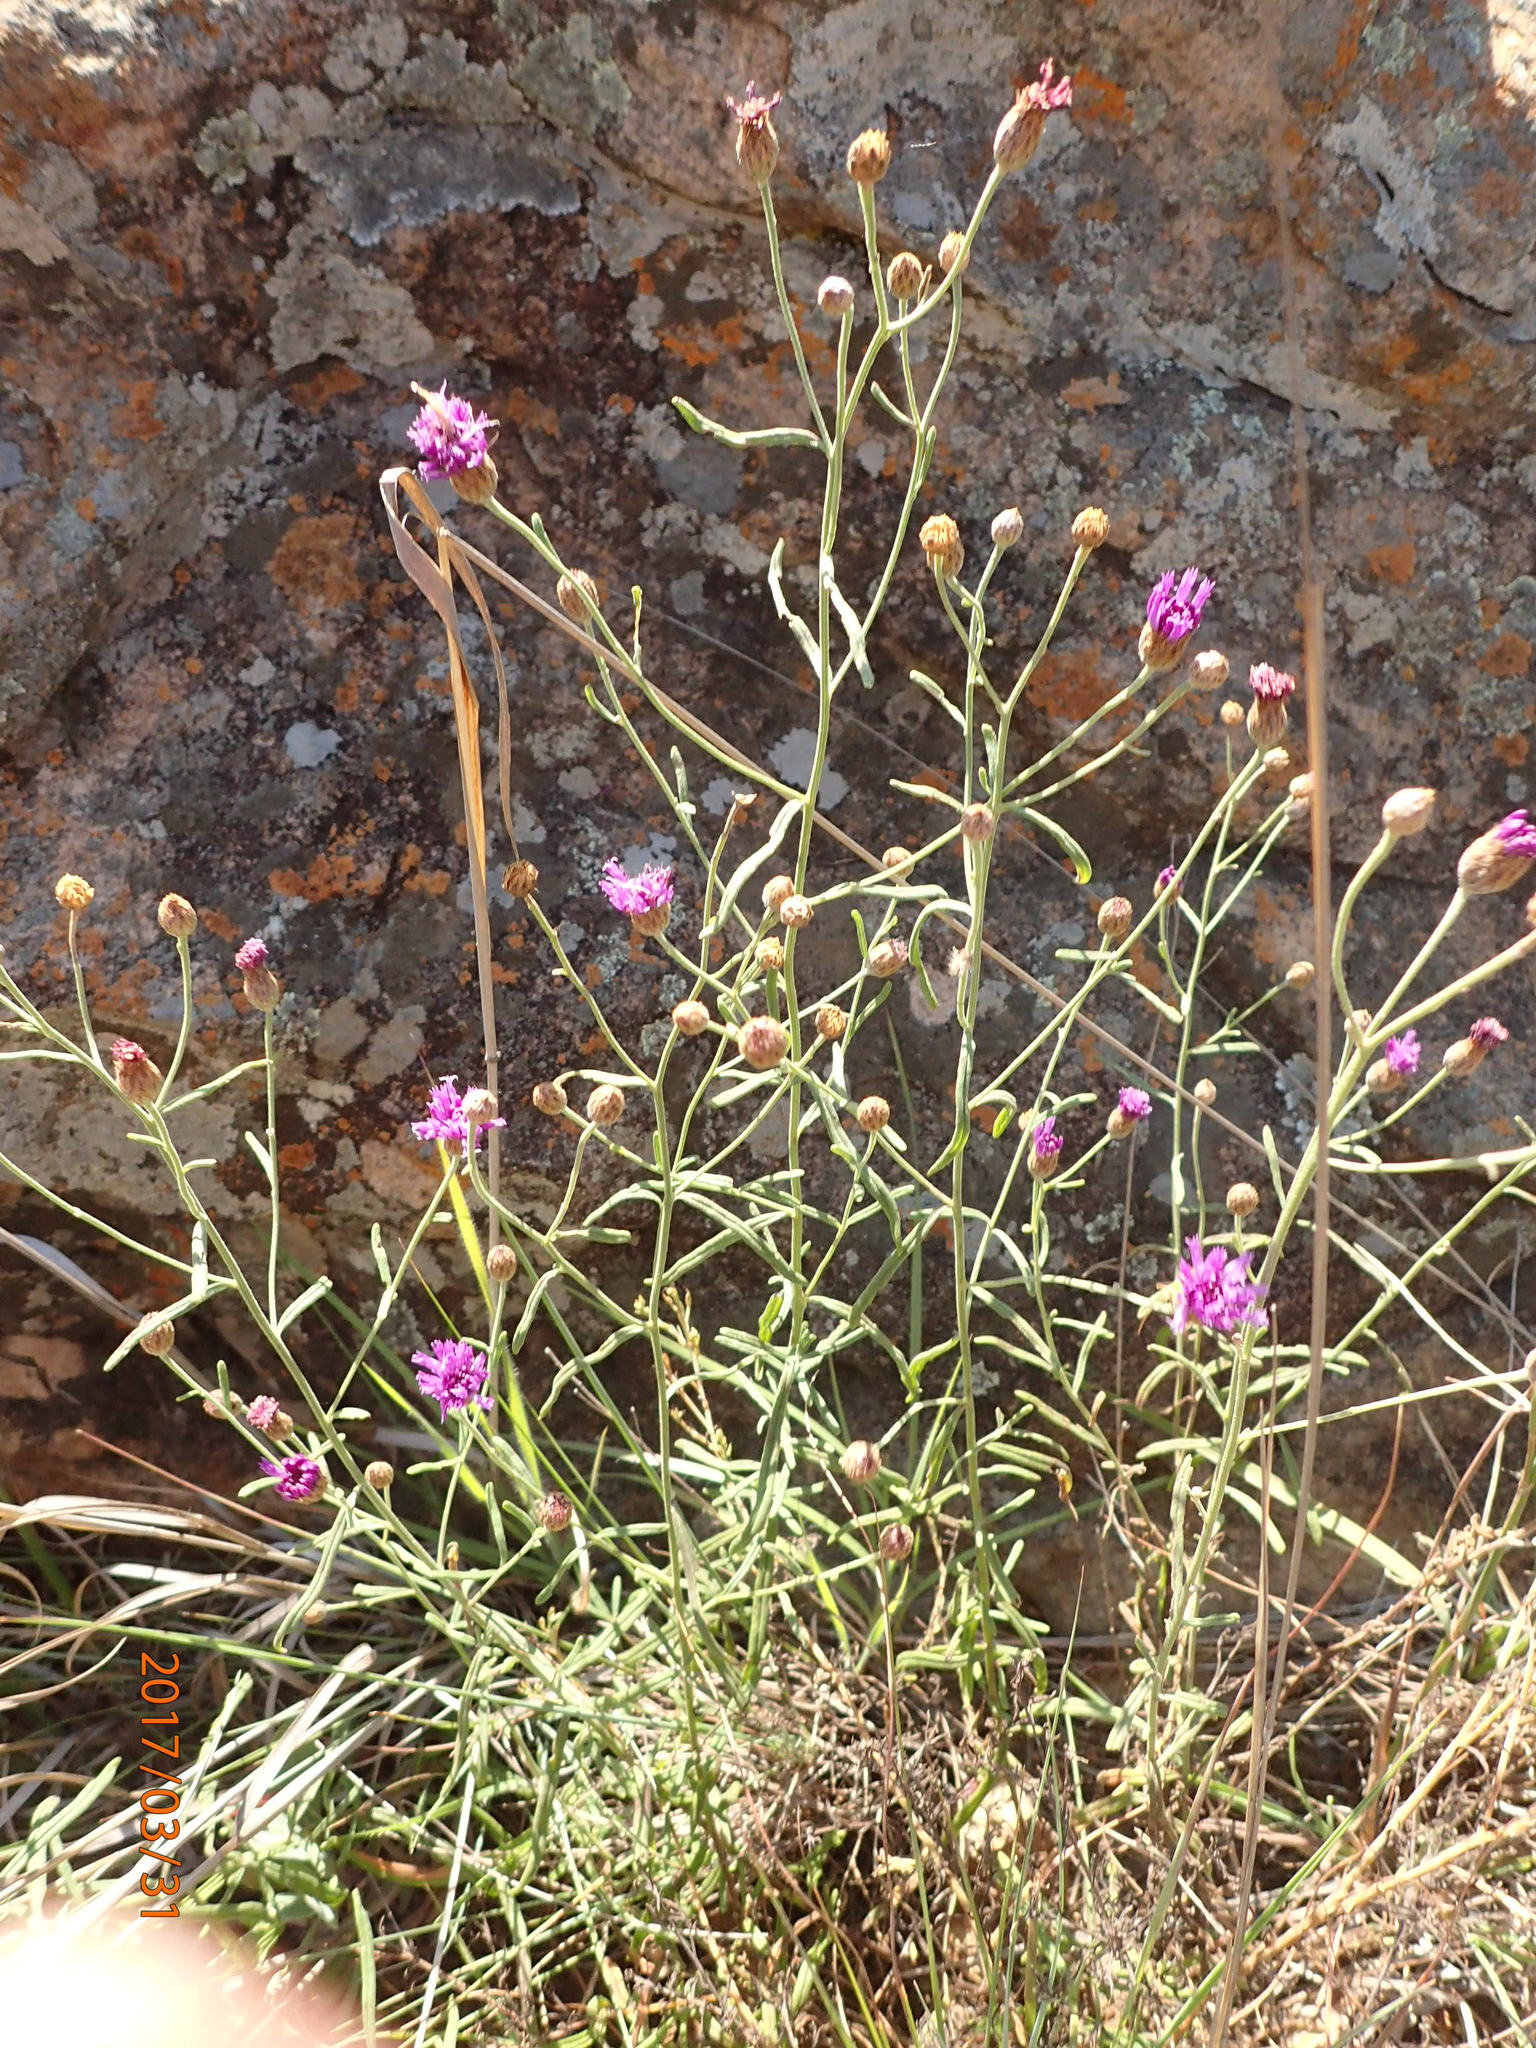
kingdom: Plantae
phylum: Tracheophyta
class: Magnoliopsida
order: Asterales
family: Asteraceae
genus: Crystallopollen
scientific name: Crystallopollen angustifolium
